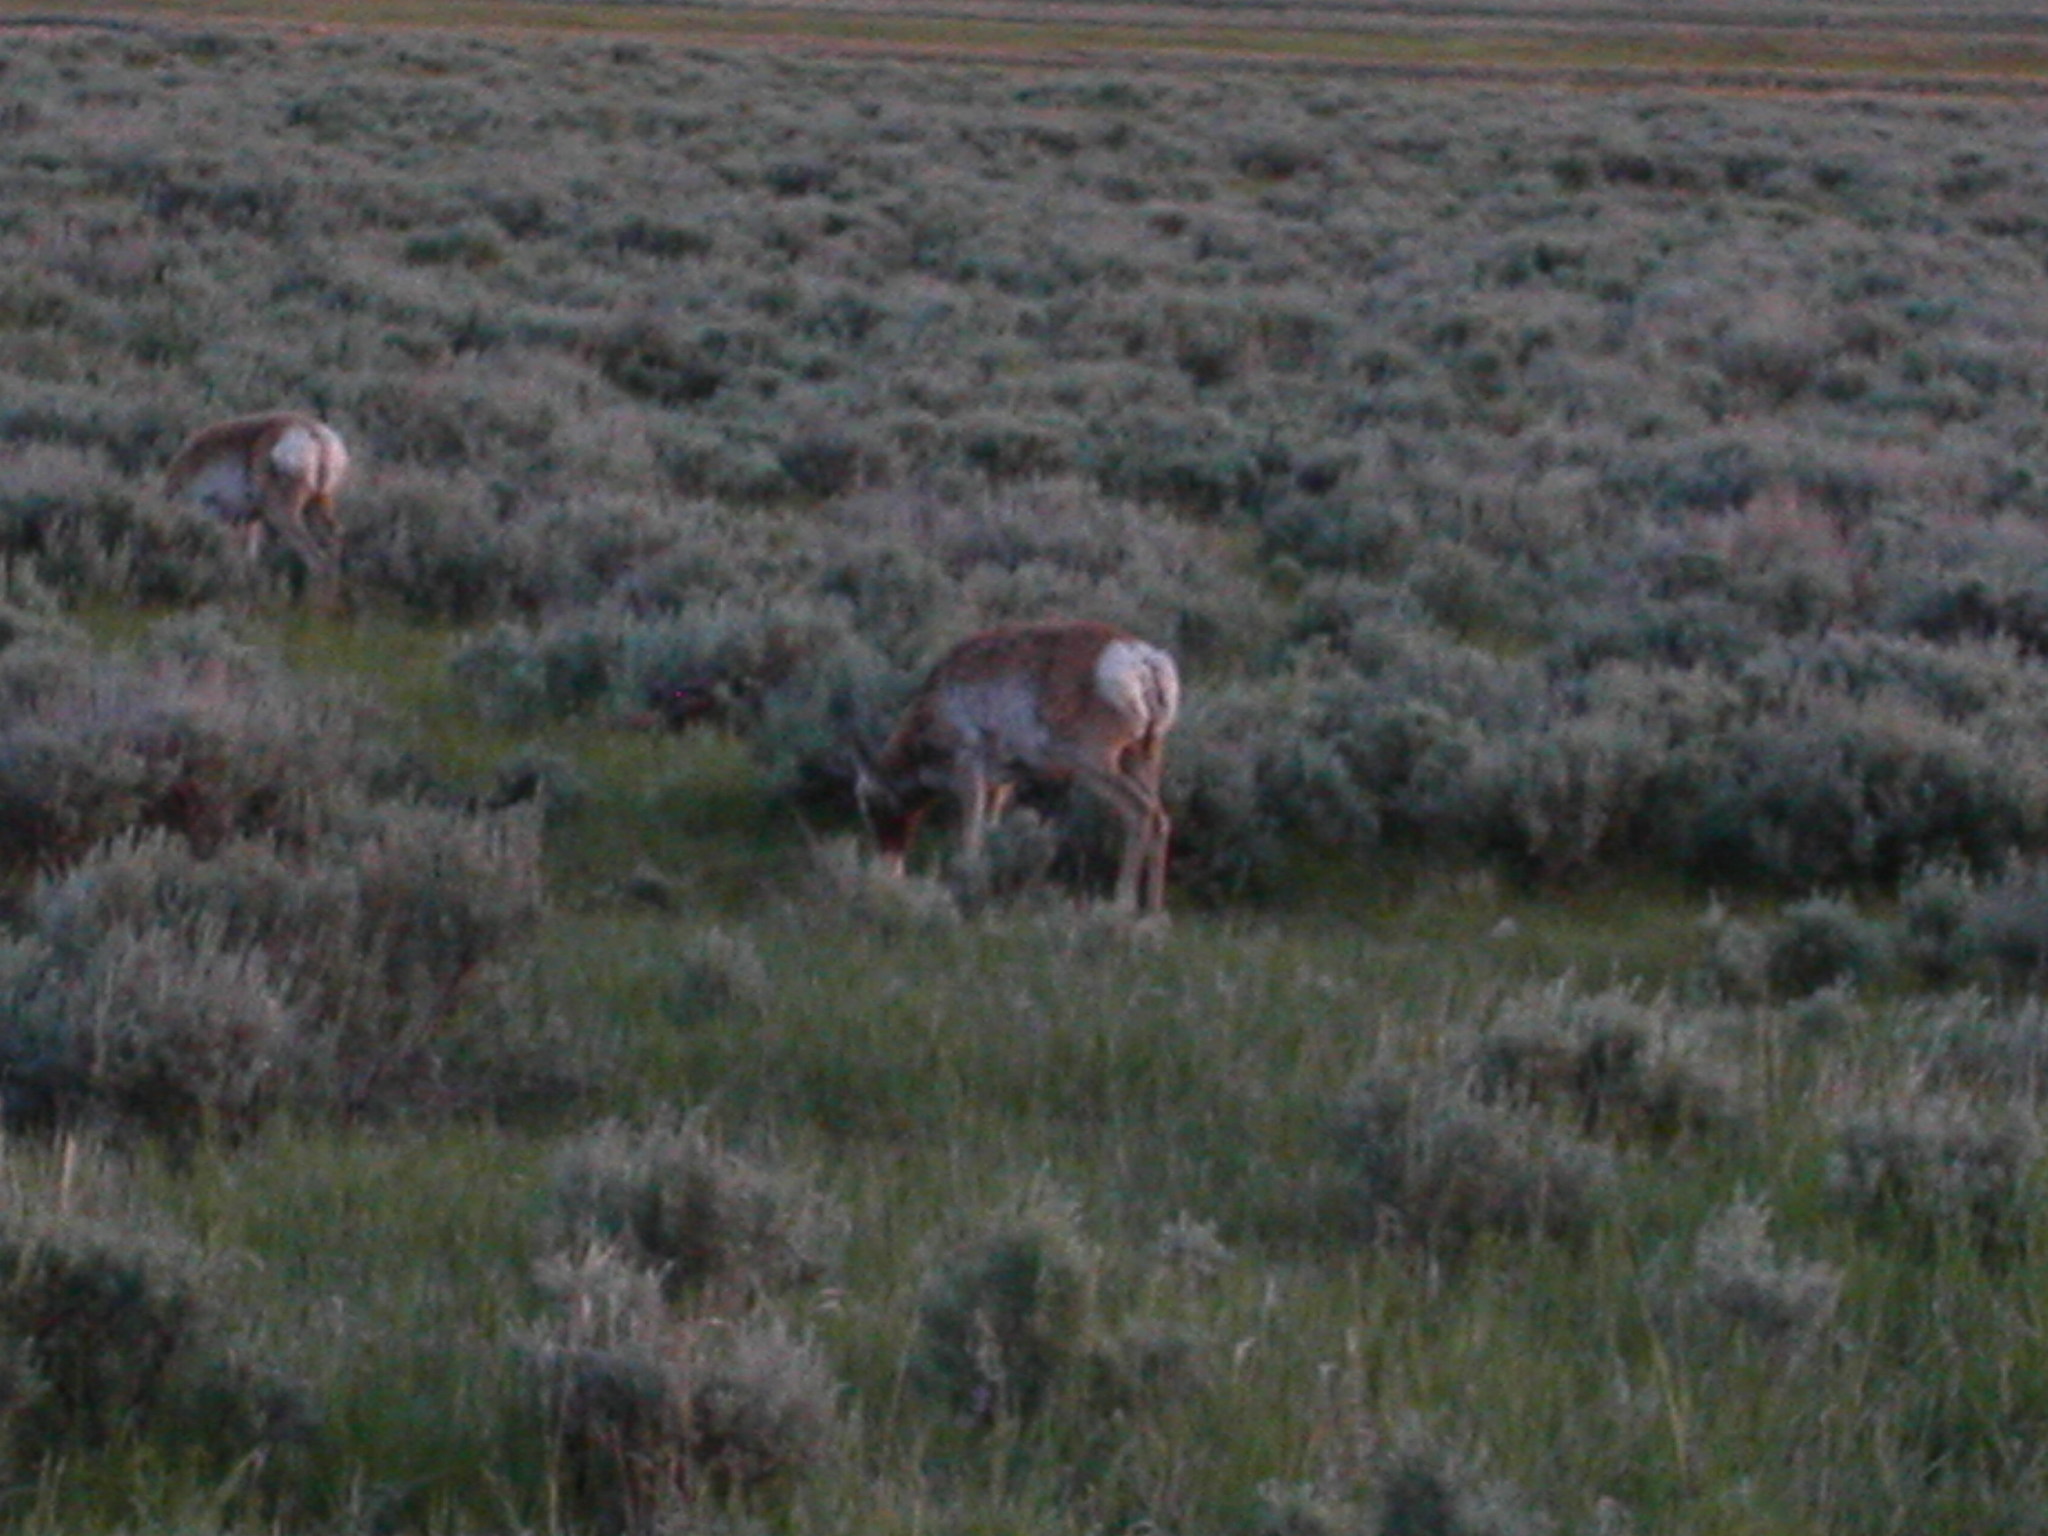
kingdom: Animalia
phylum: Chordata
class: Mammalia
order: Artiodactyla
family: Antilocapridae
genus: Antilocapra
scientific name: Antilocapra americana
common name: Pronghorn
